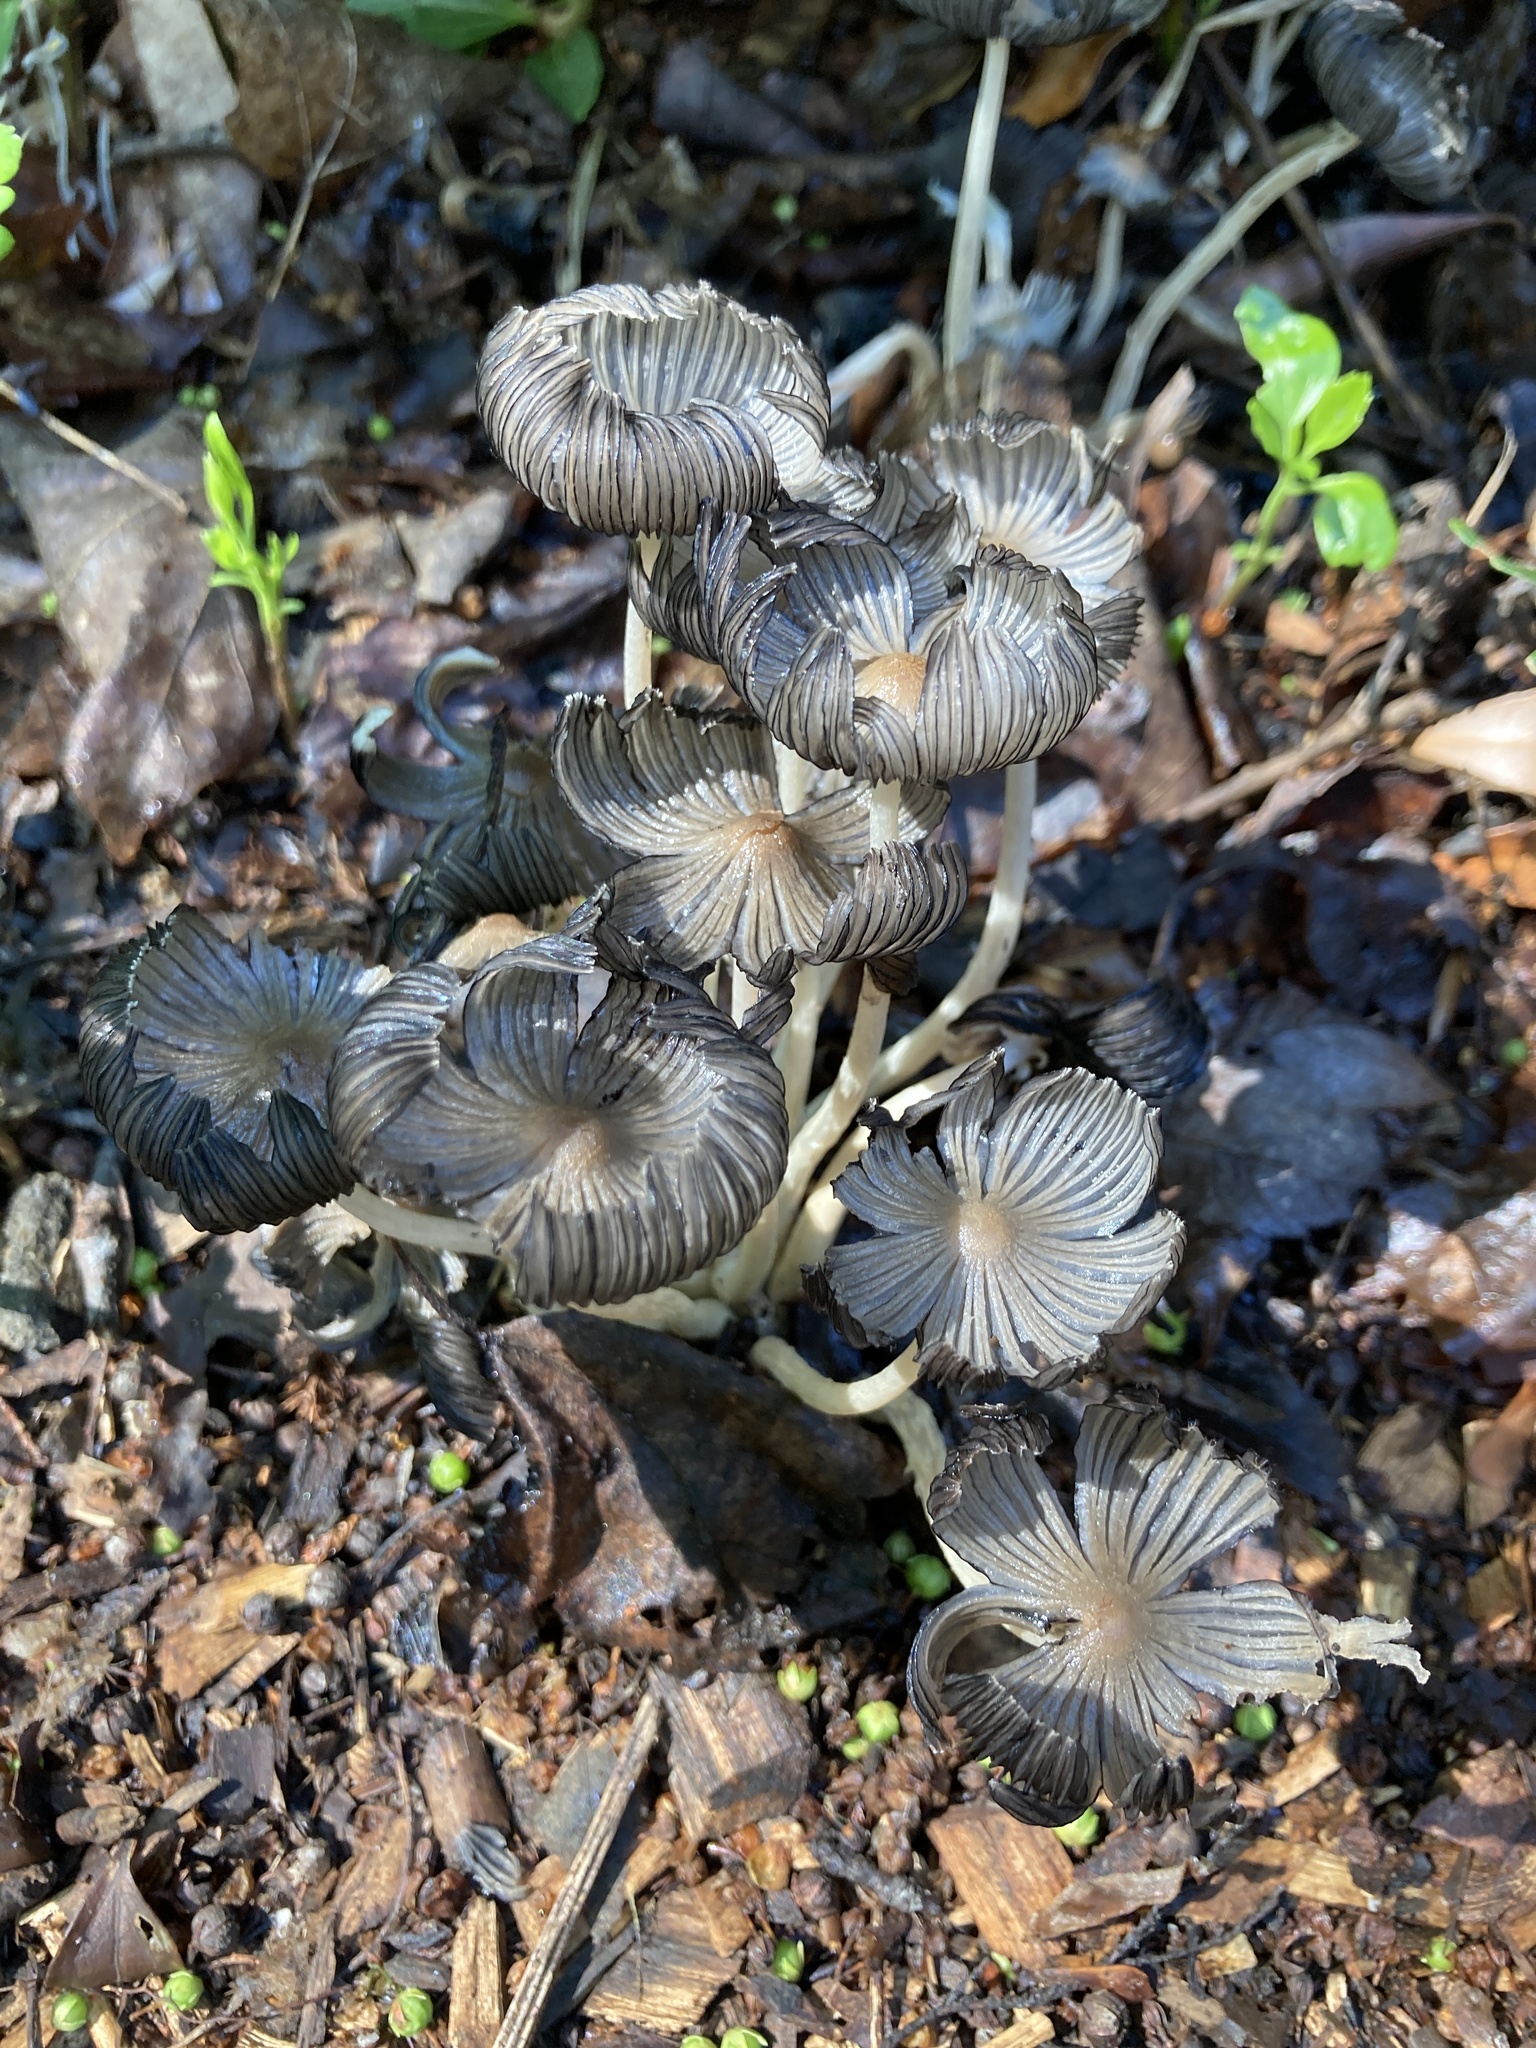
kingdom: Fungi
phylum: Basidiomycota
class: Agaricomycetes
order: Agaricales
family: Psathyrellaceae
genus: Coprinopsis
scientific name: Coprinopsis lagopus
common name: Hare'sfoot inkcap
